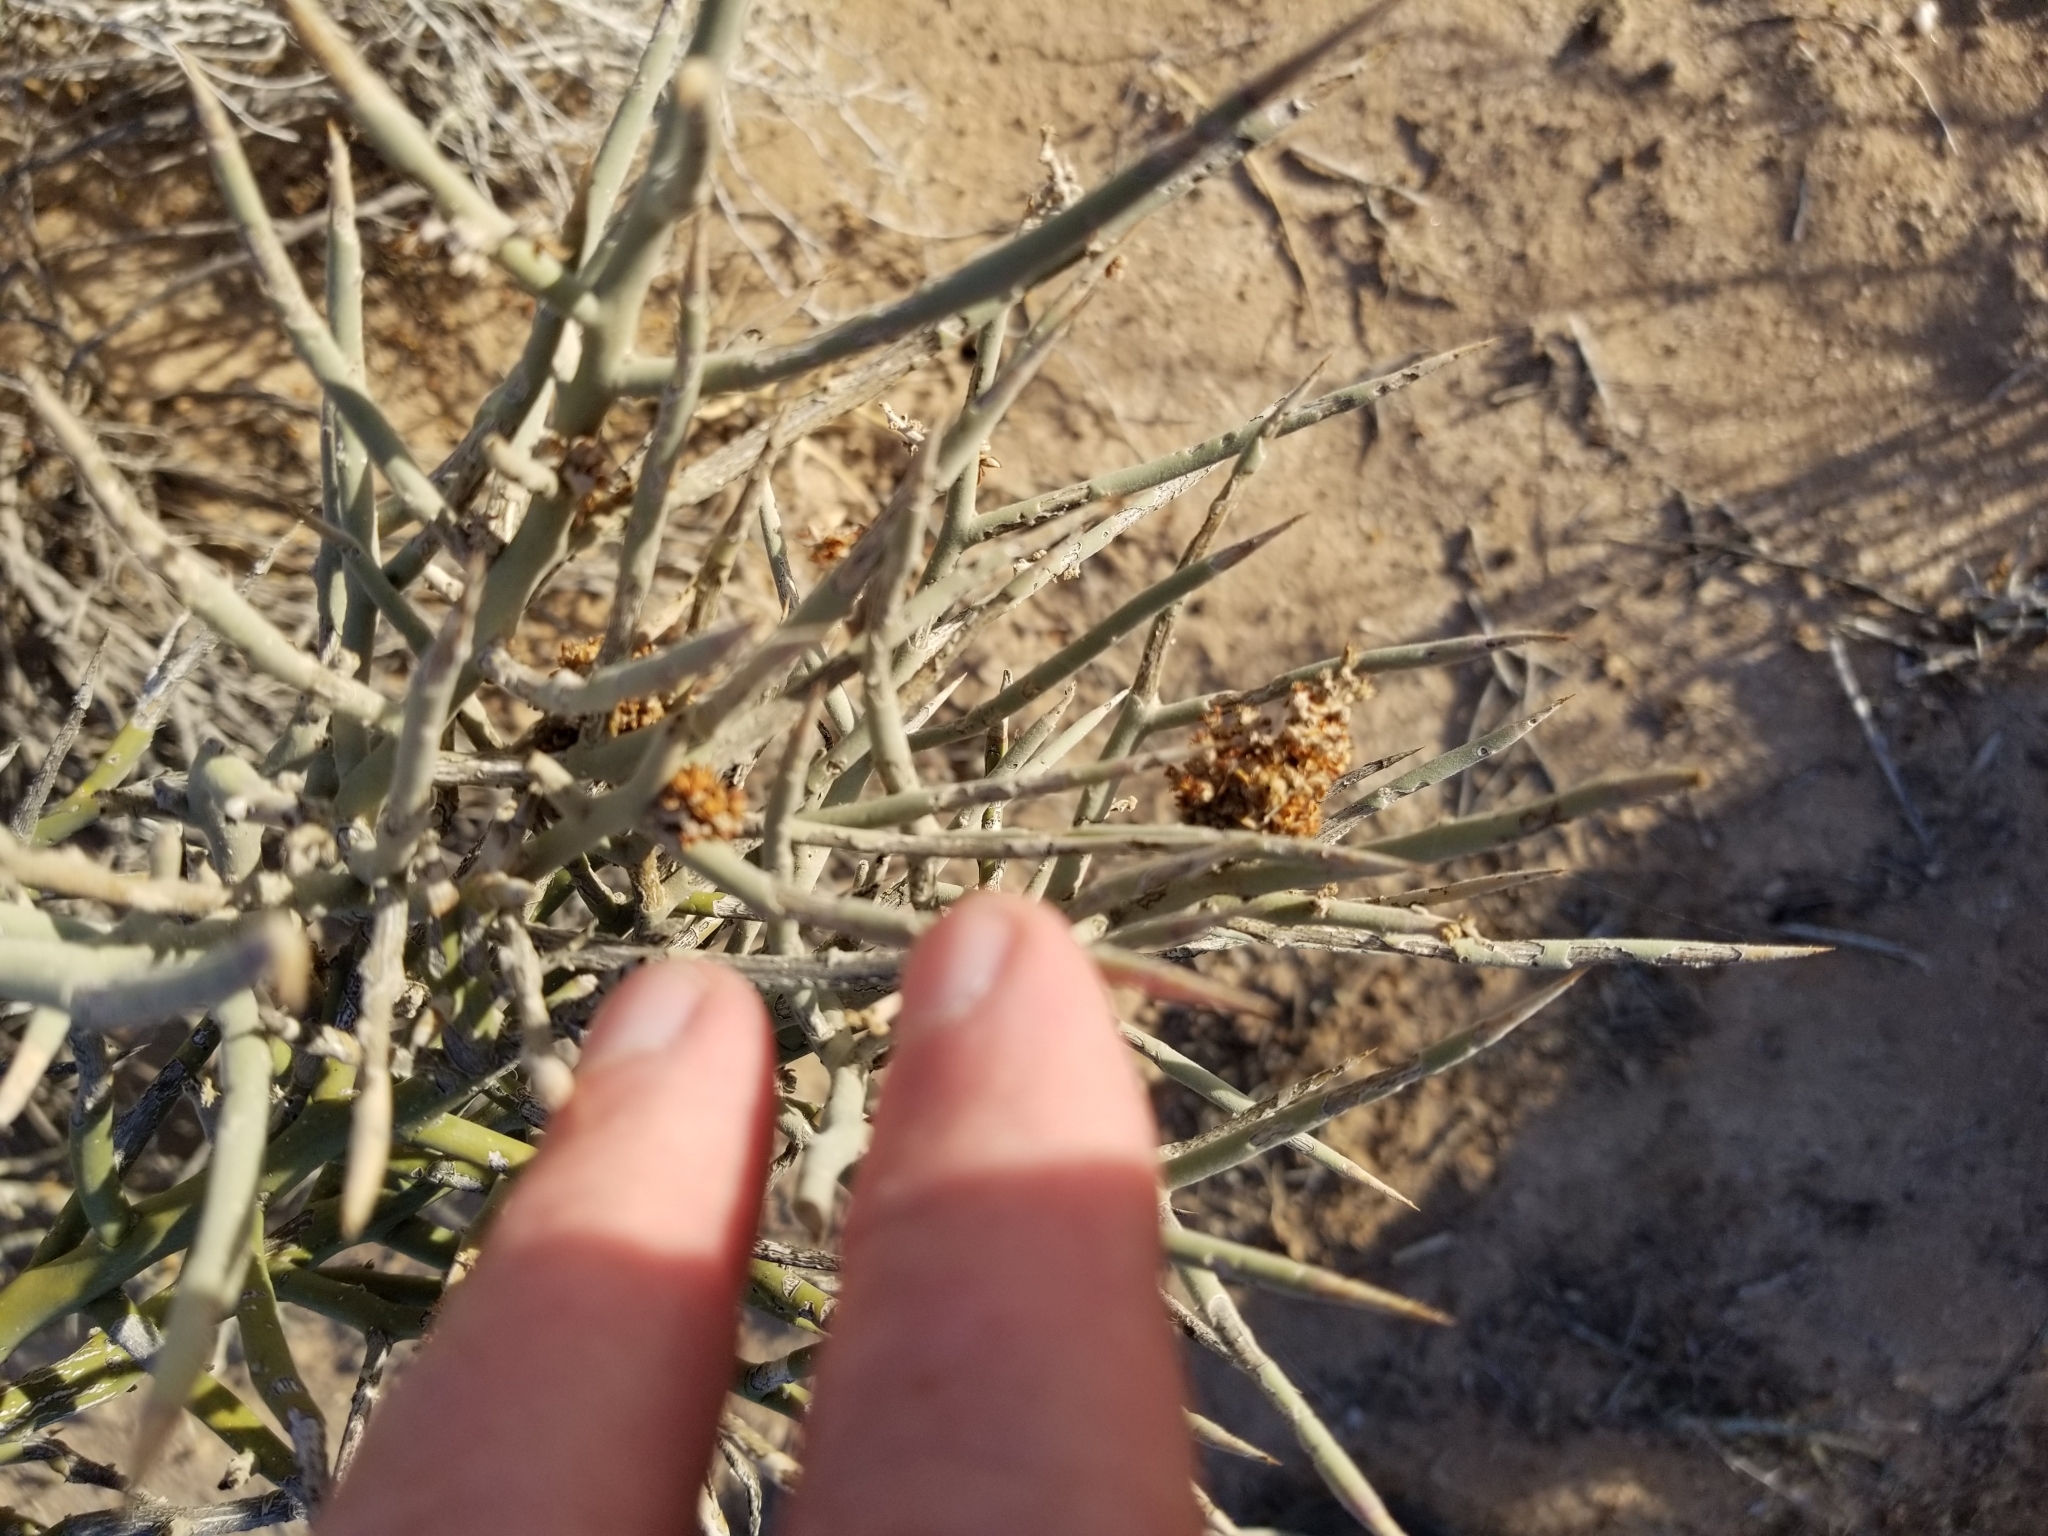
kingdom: Plantae
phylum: Tracheophyta
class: Magnoliopsida
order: Sapindales
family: Simaroubaceae
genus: Holacantha
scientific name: Holacantha emoryi
